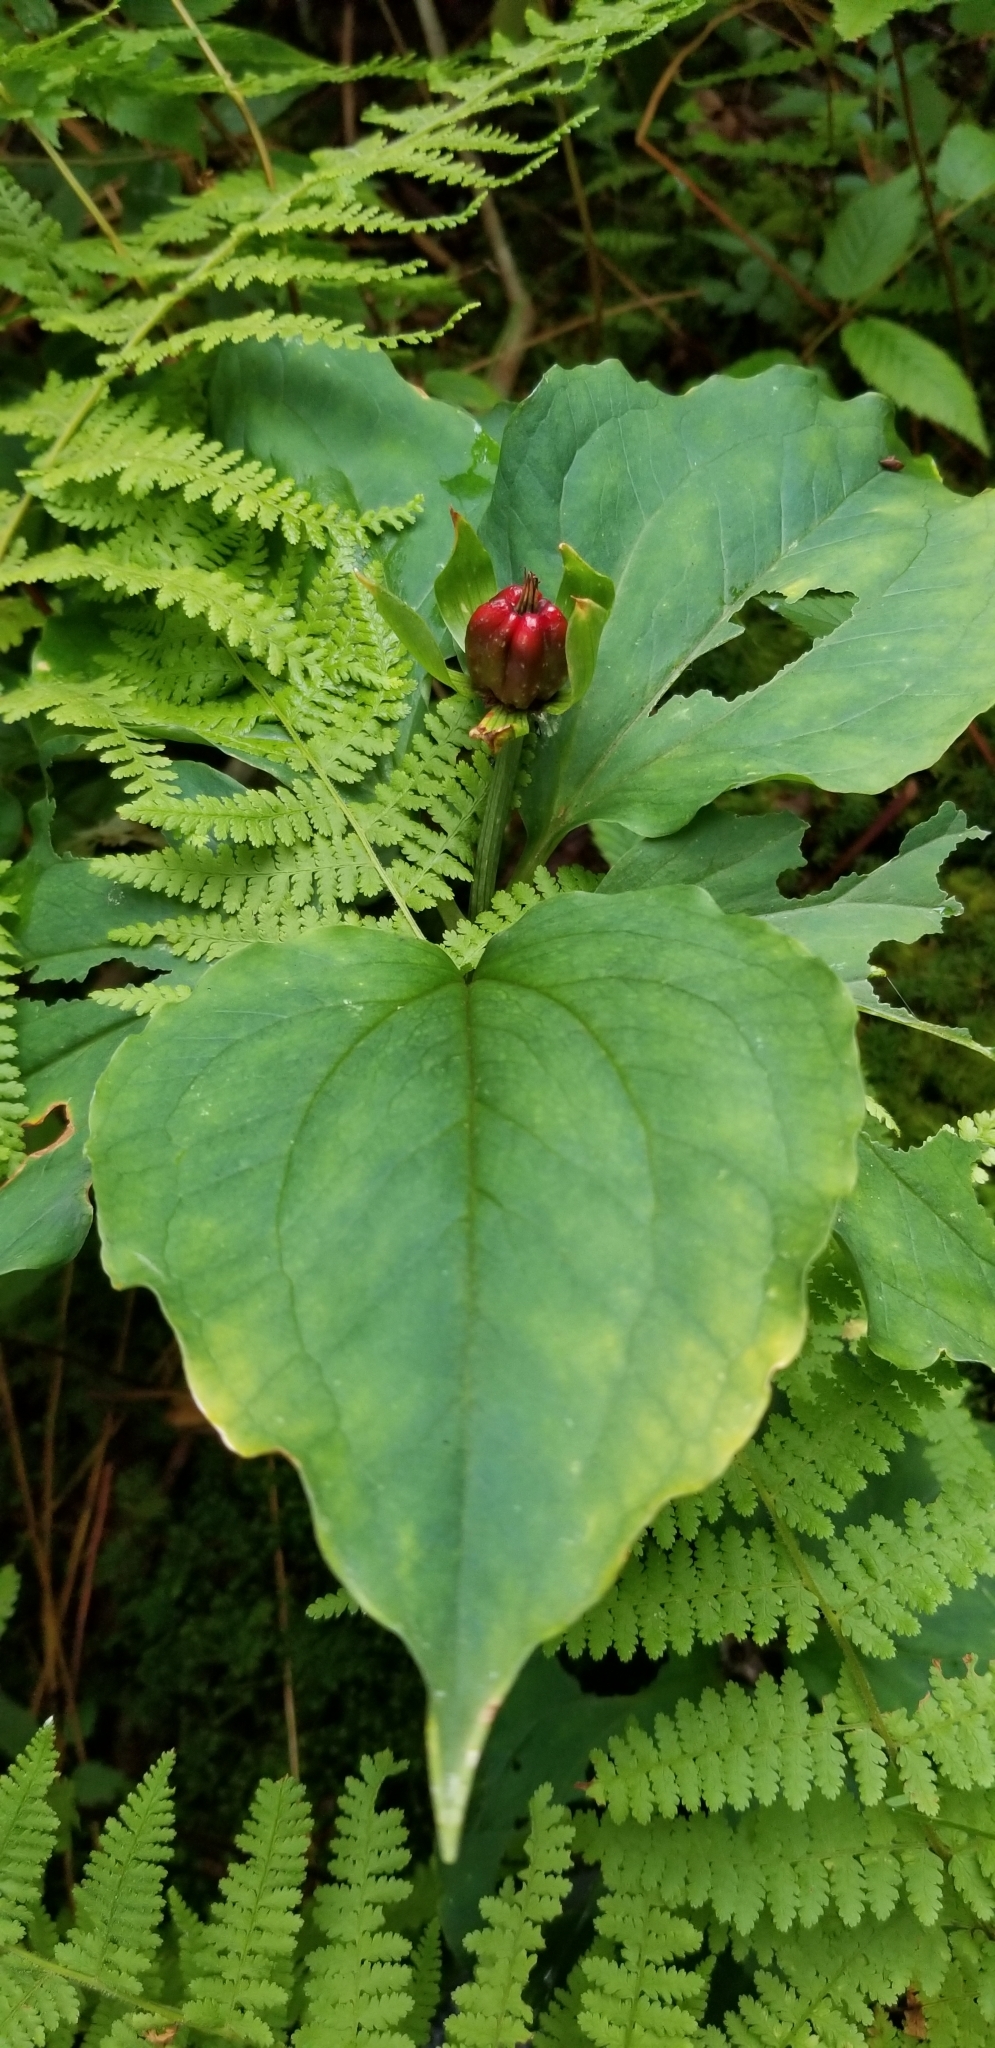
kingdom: Plantae
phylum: Tracheophyta
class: Liliopsida
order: Liliales
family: Melanthiaceae
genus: Trillium
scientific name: Trillium undulatum
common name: Paint trillium
